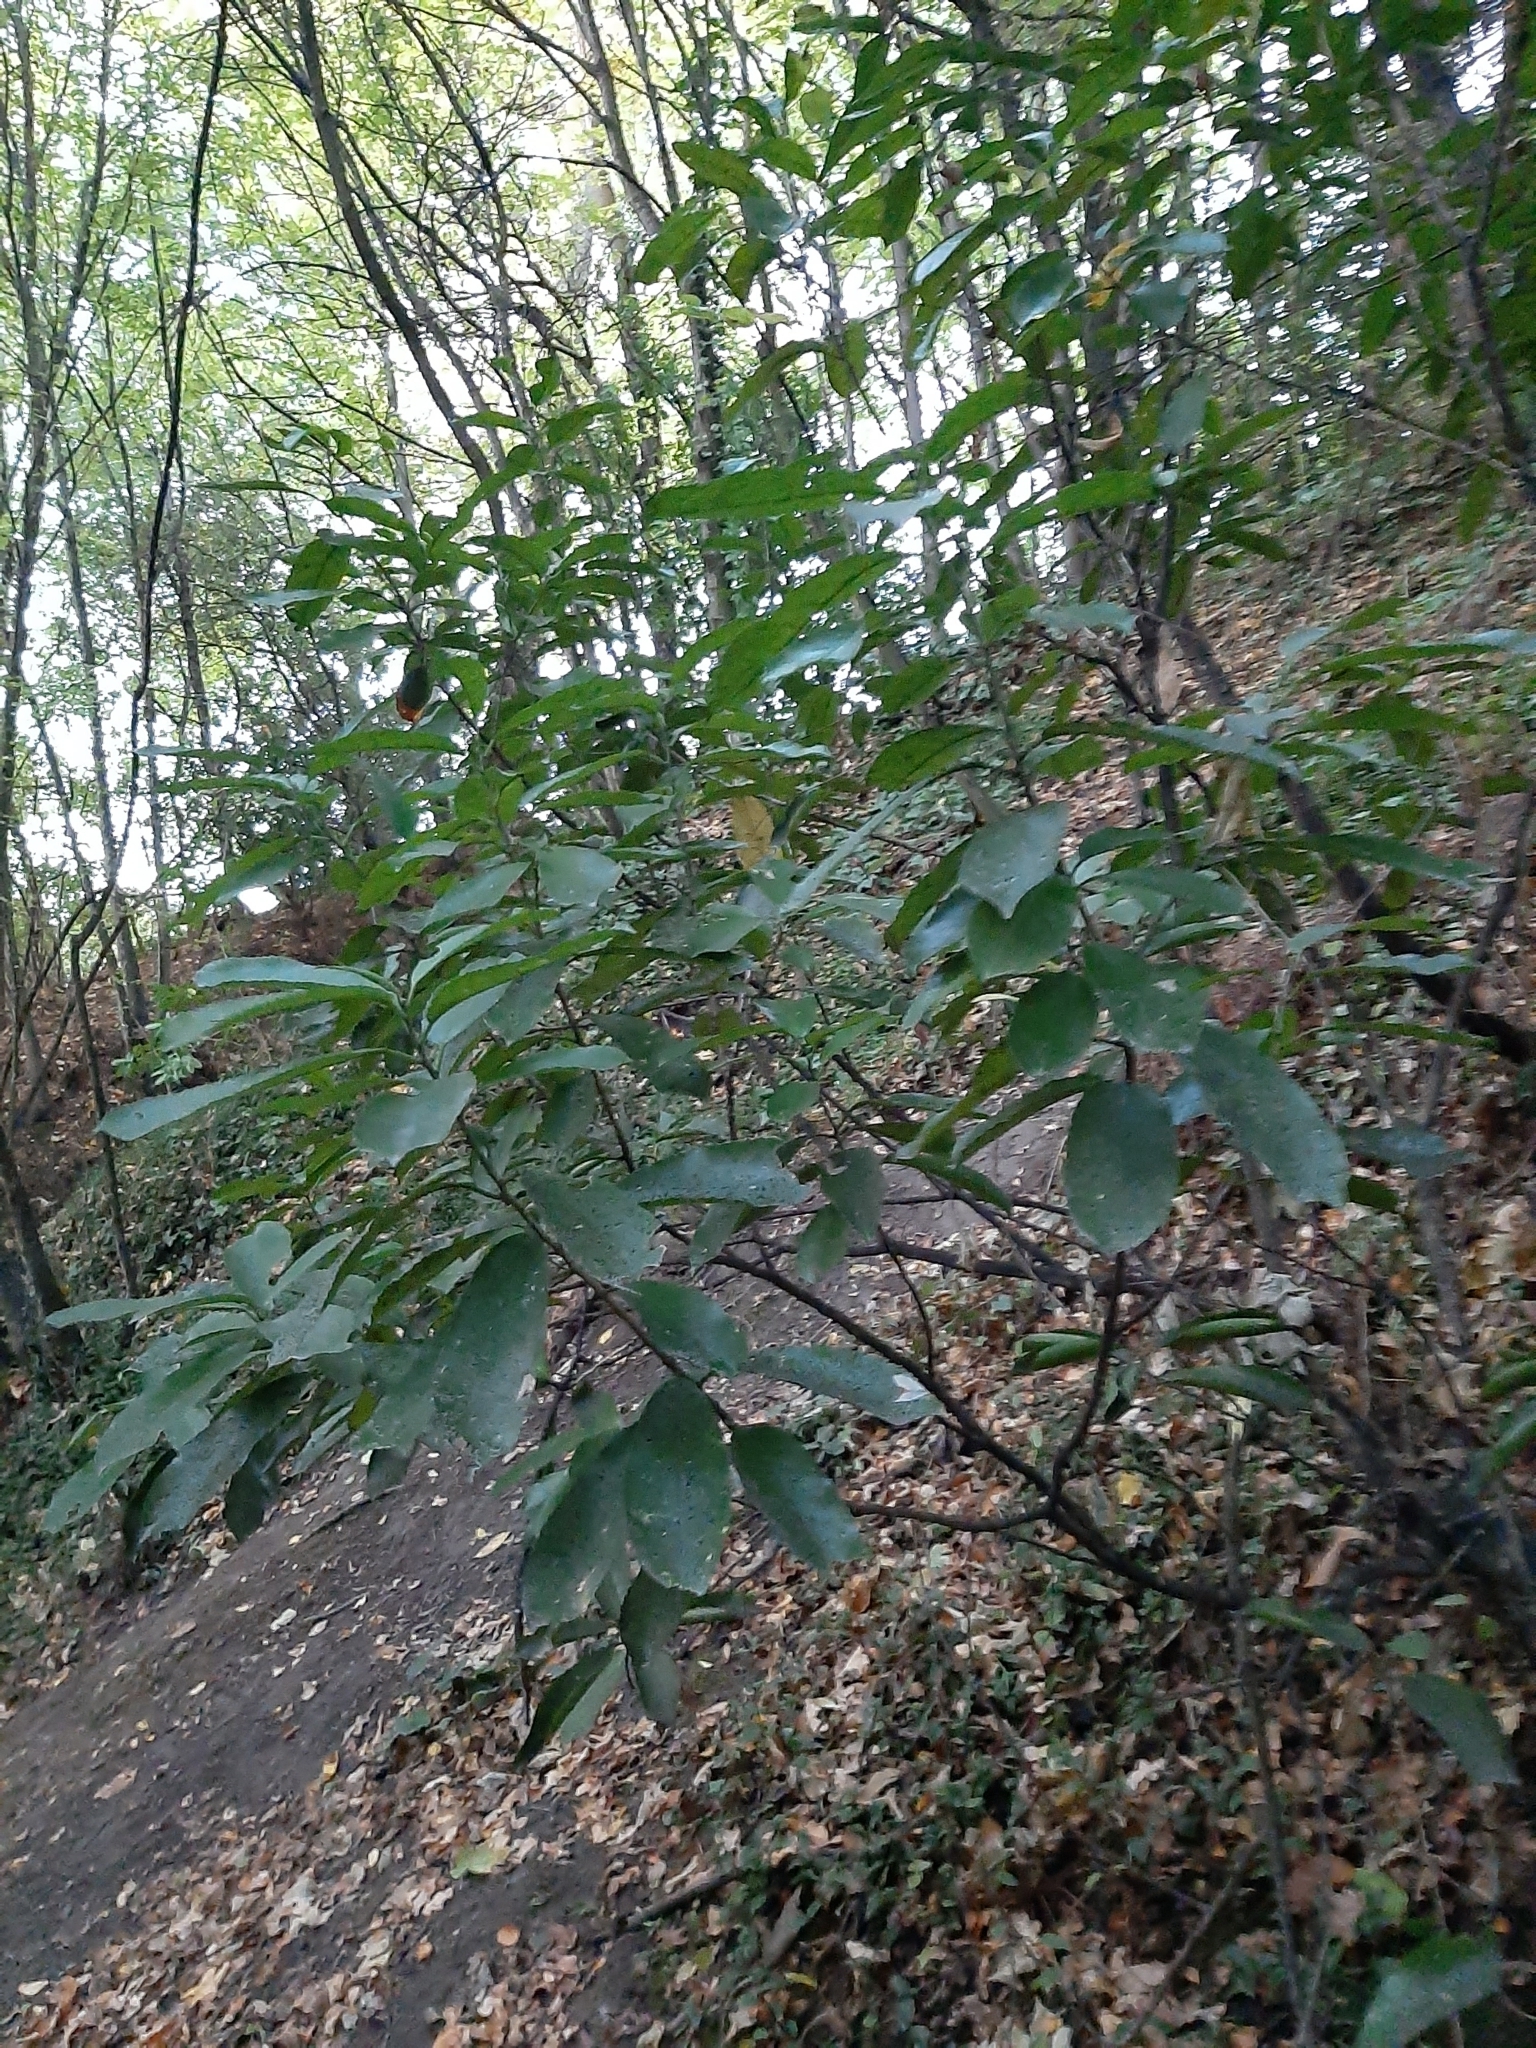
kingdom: Plantae
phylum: Tracheophyta
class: Magnoliopsida
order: Malpighiales
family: Violaceae
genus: Melicytus
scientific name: Melicytus ramiflorus
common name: Mahoe
